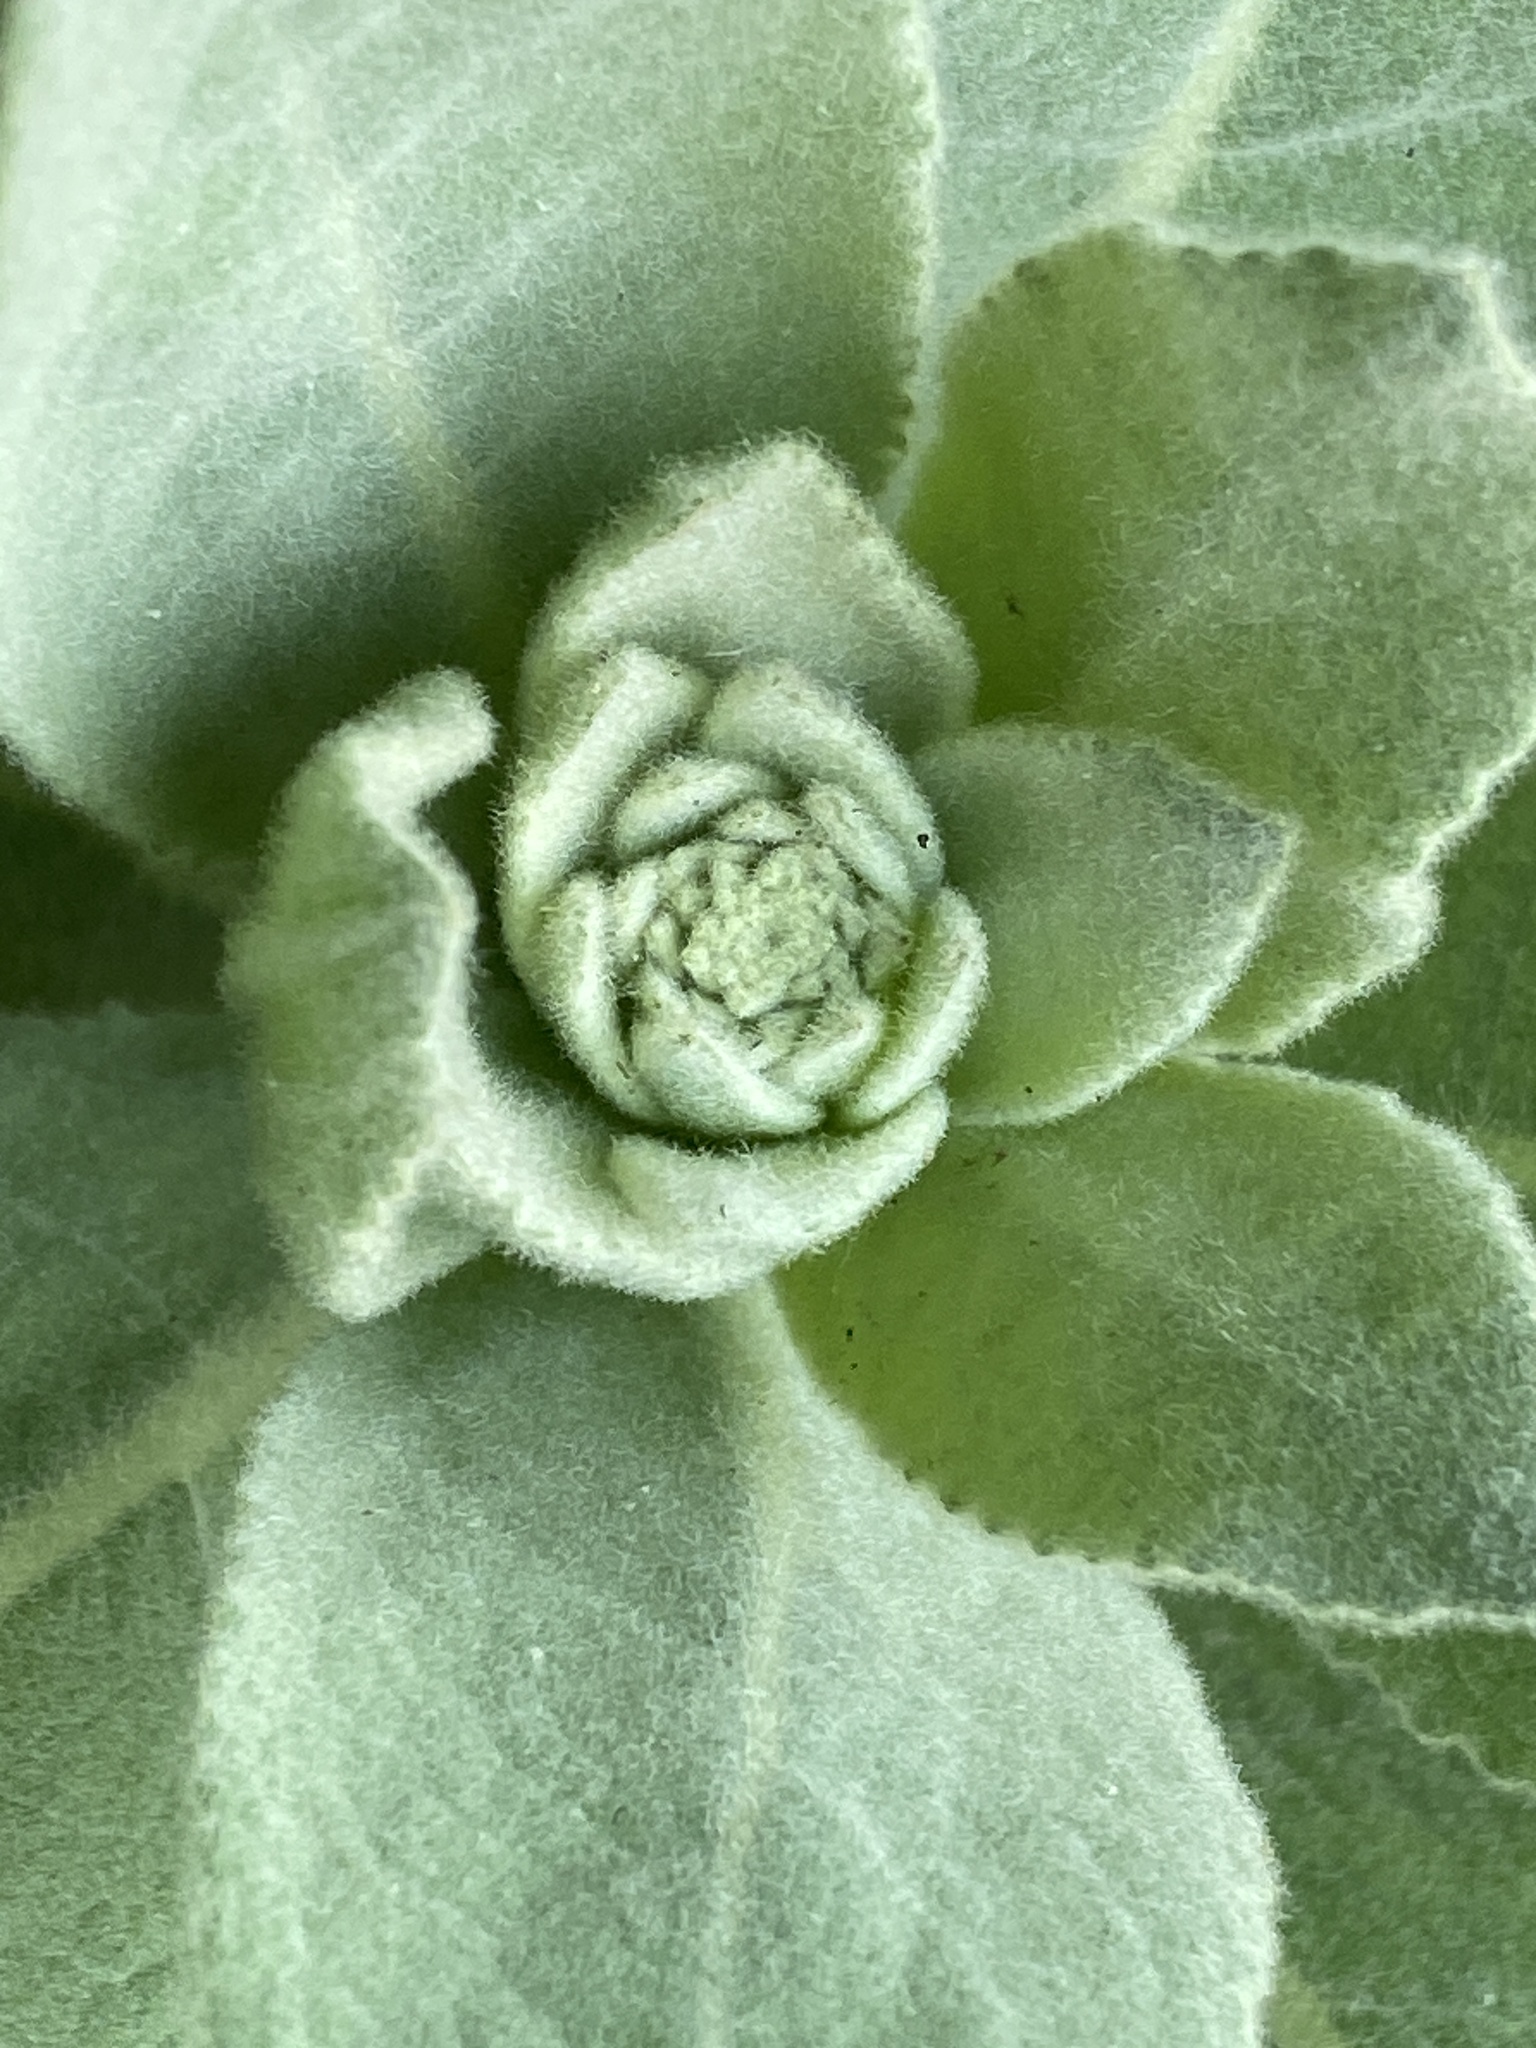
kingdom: Plantae
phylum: Tracheophyta
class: Magnoliopsida
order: Lamiales
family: Scrophulariaceae
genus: Verbascum
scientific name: Verbascum thapsus
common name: Common mullein
